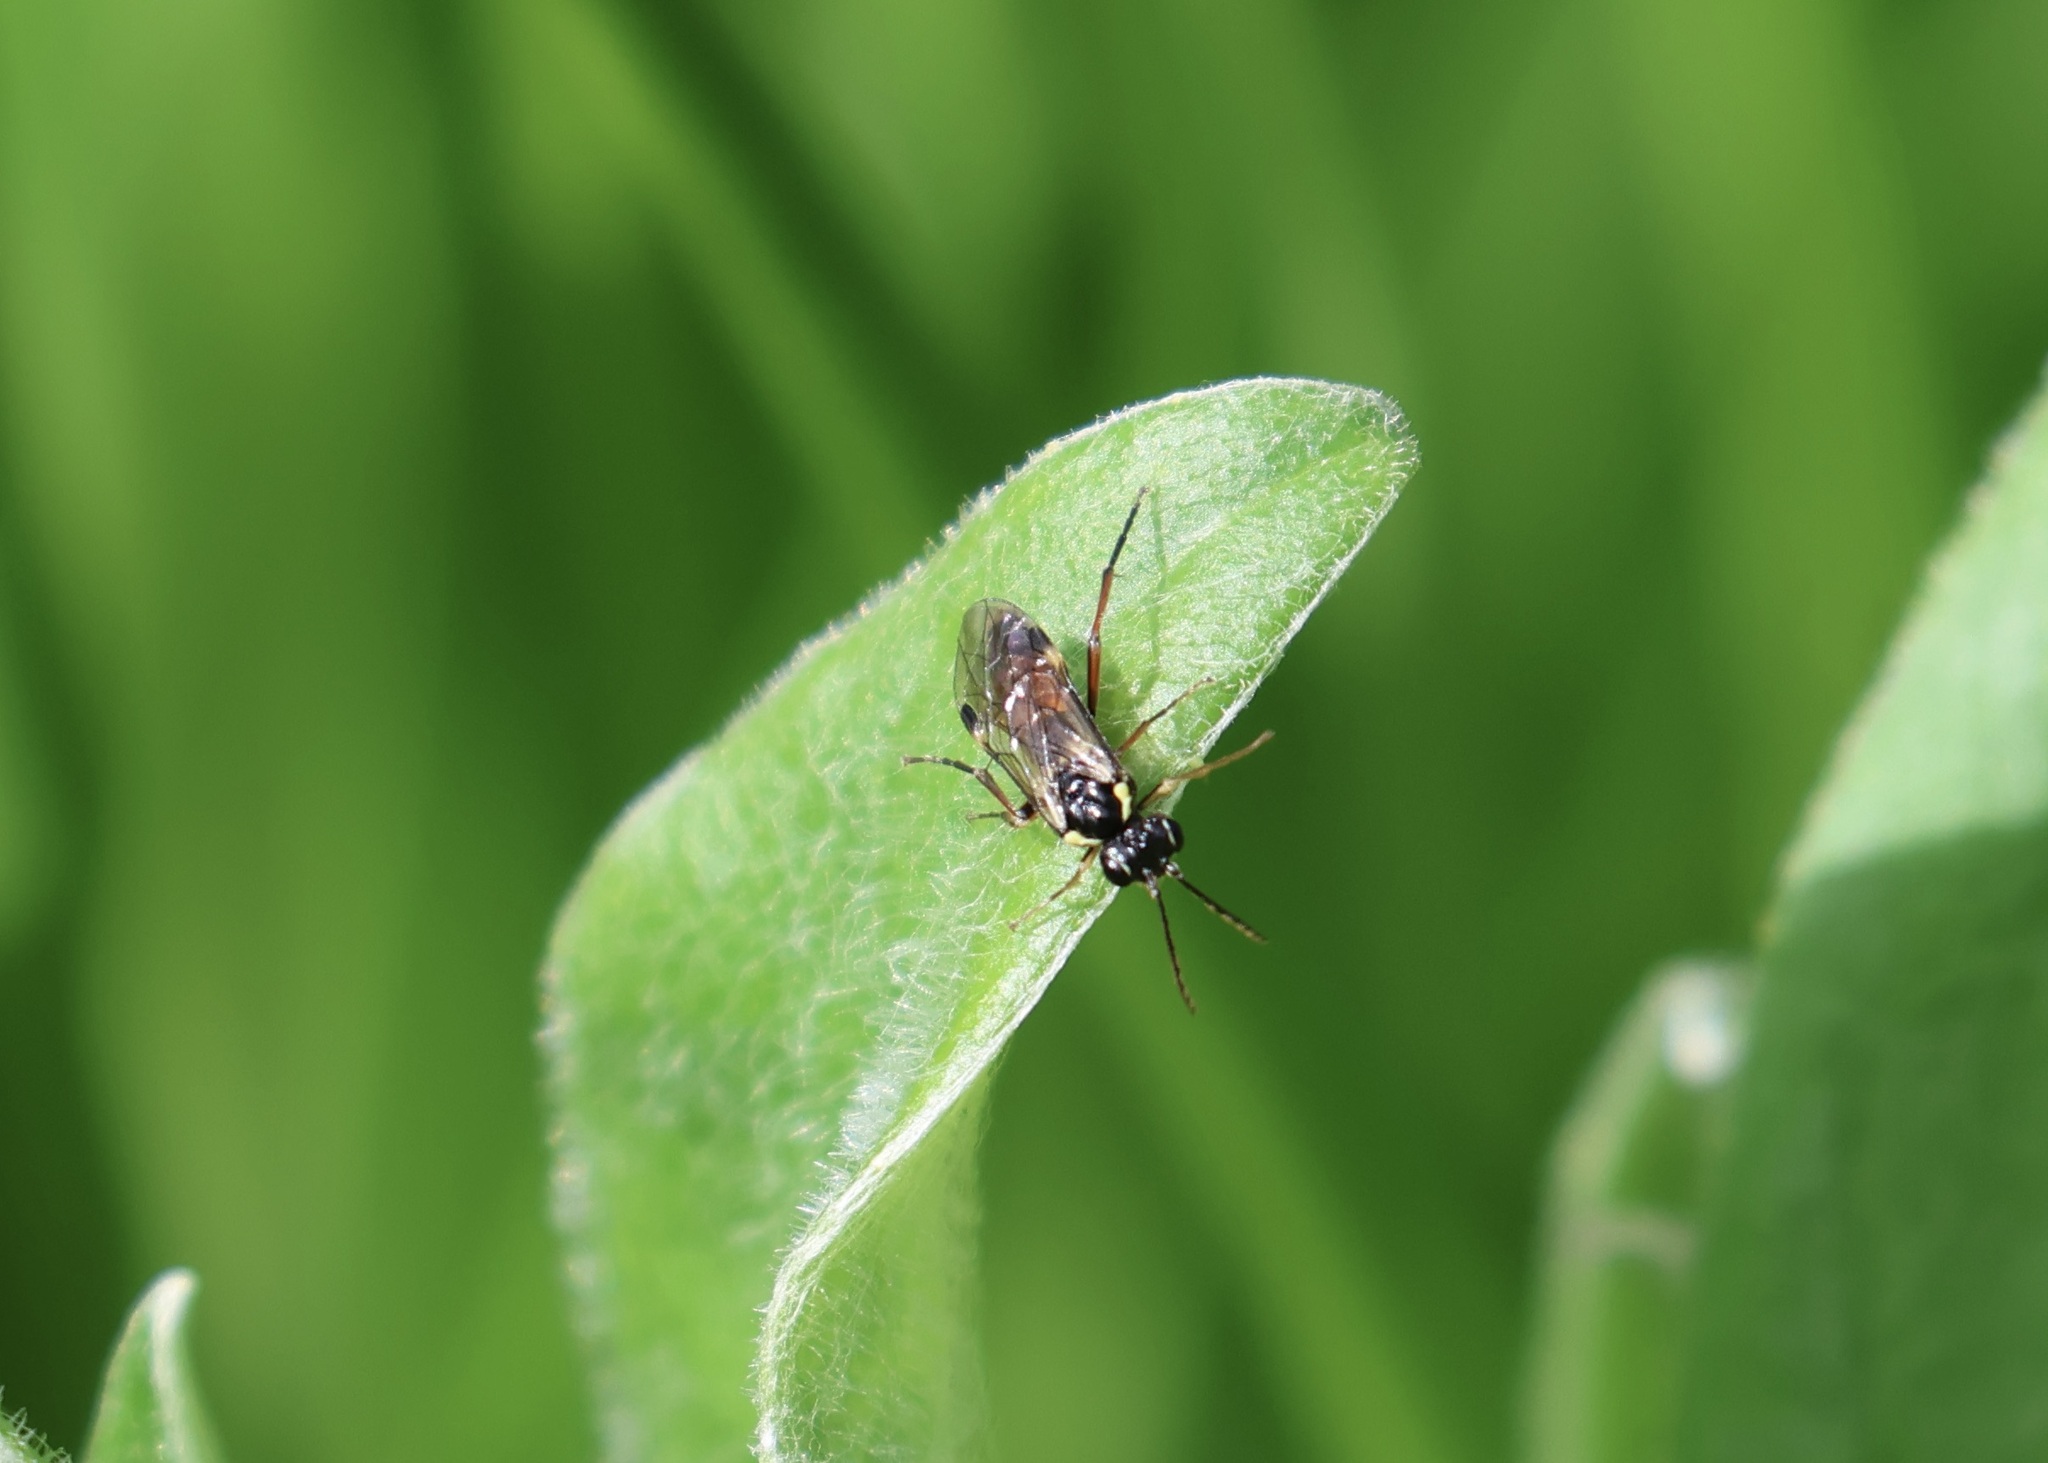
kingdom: Animalia
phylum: Arthropoda
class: Insecta
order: Hymenoptera
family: Tenthredinidae
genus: Aglaostigma
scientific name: Aglaostigma aucupariae
